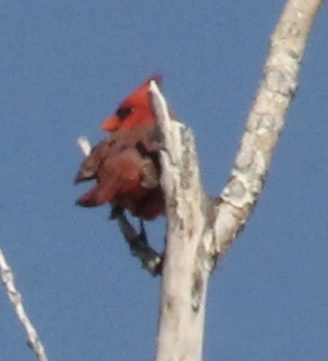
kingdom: Animalia
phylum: Chordata
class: Aves
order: Passeriformes
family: Cardinalidae
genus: Cardinalis
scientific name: Cardinalis cardinalis
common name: Northern cardinal
